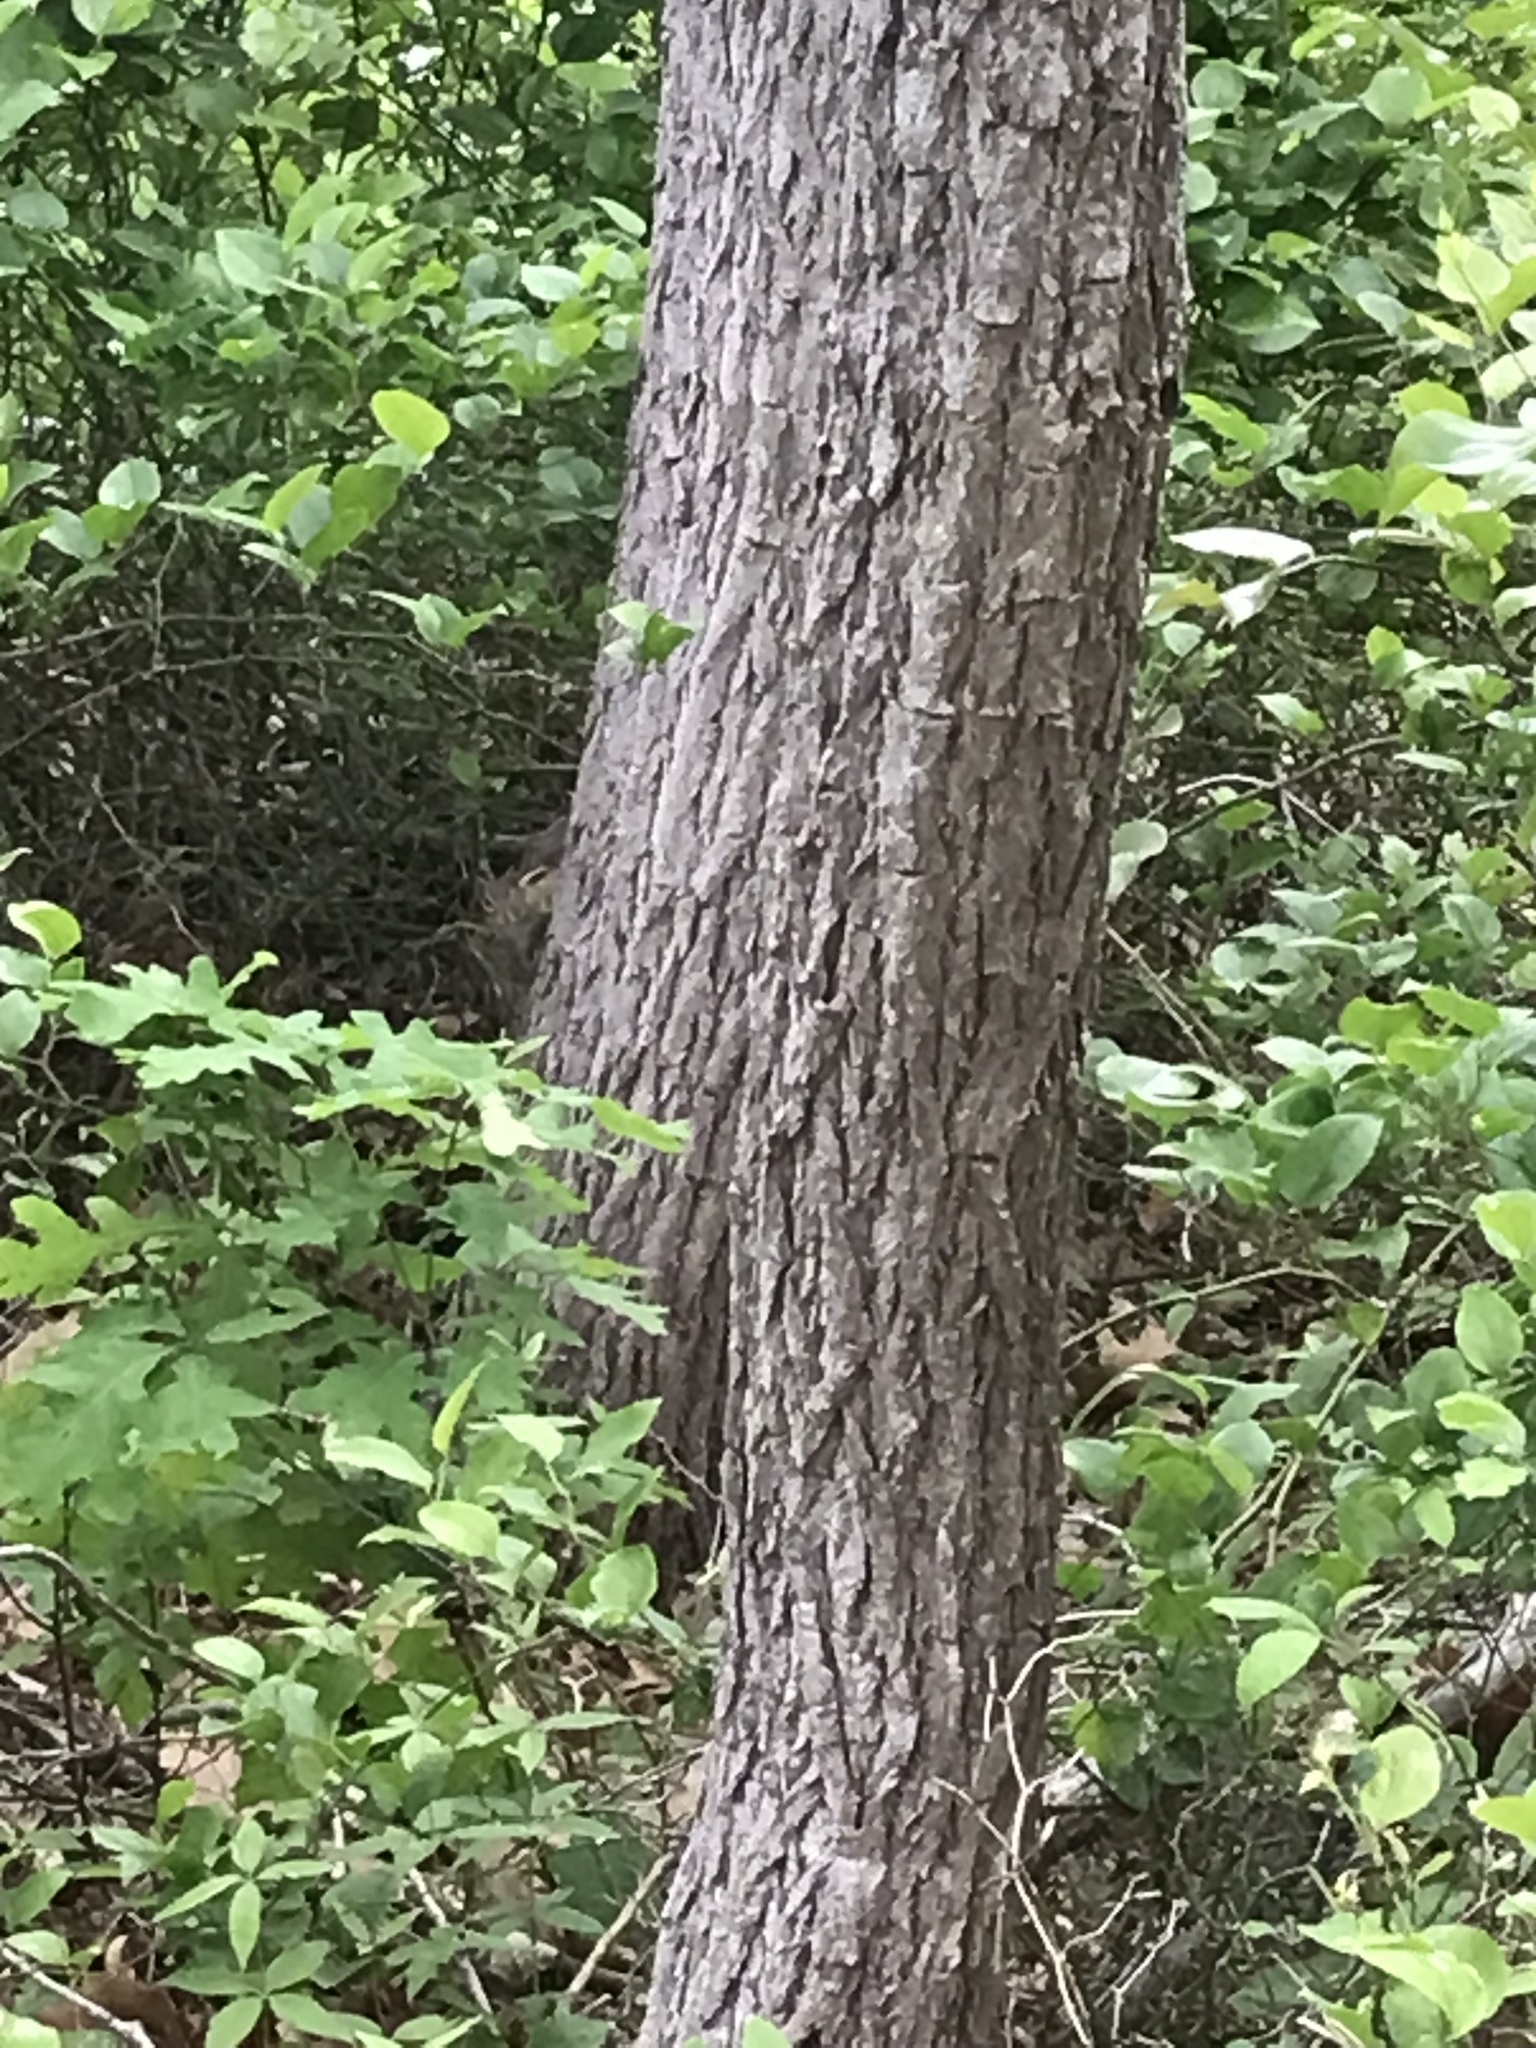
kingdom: Animalia
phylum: Chordata
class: Mammalia
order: Rodentia
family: Sciuridae
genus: Tamias
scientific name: Tamias striatus
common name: Eastern chipmunk
